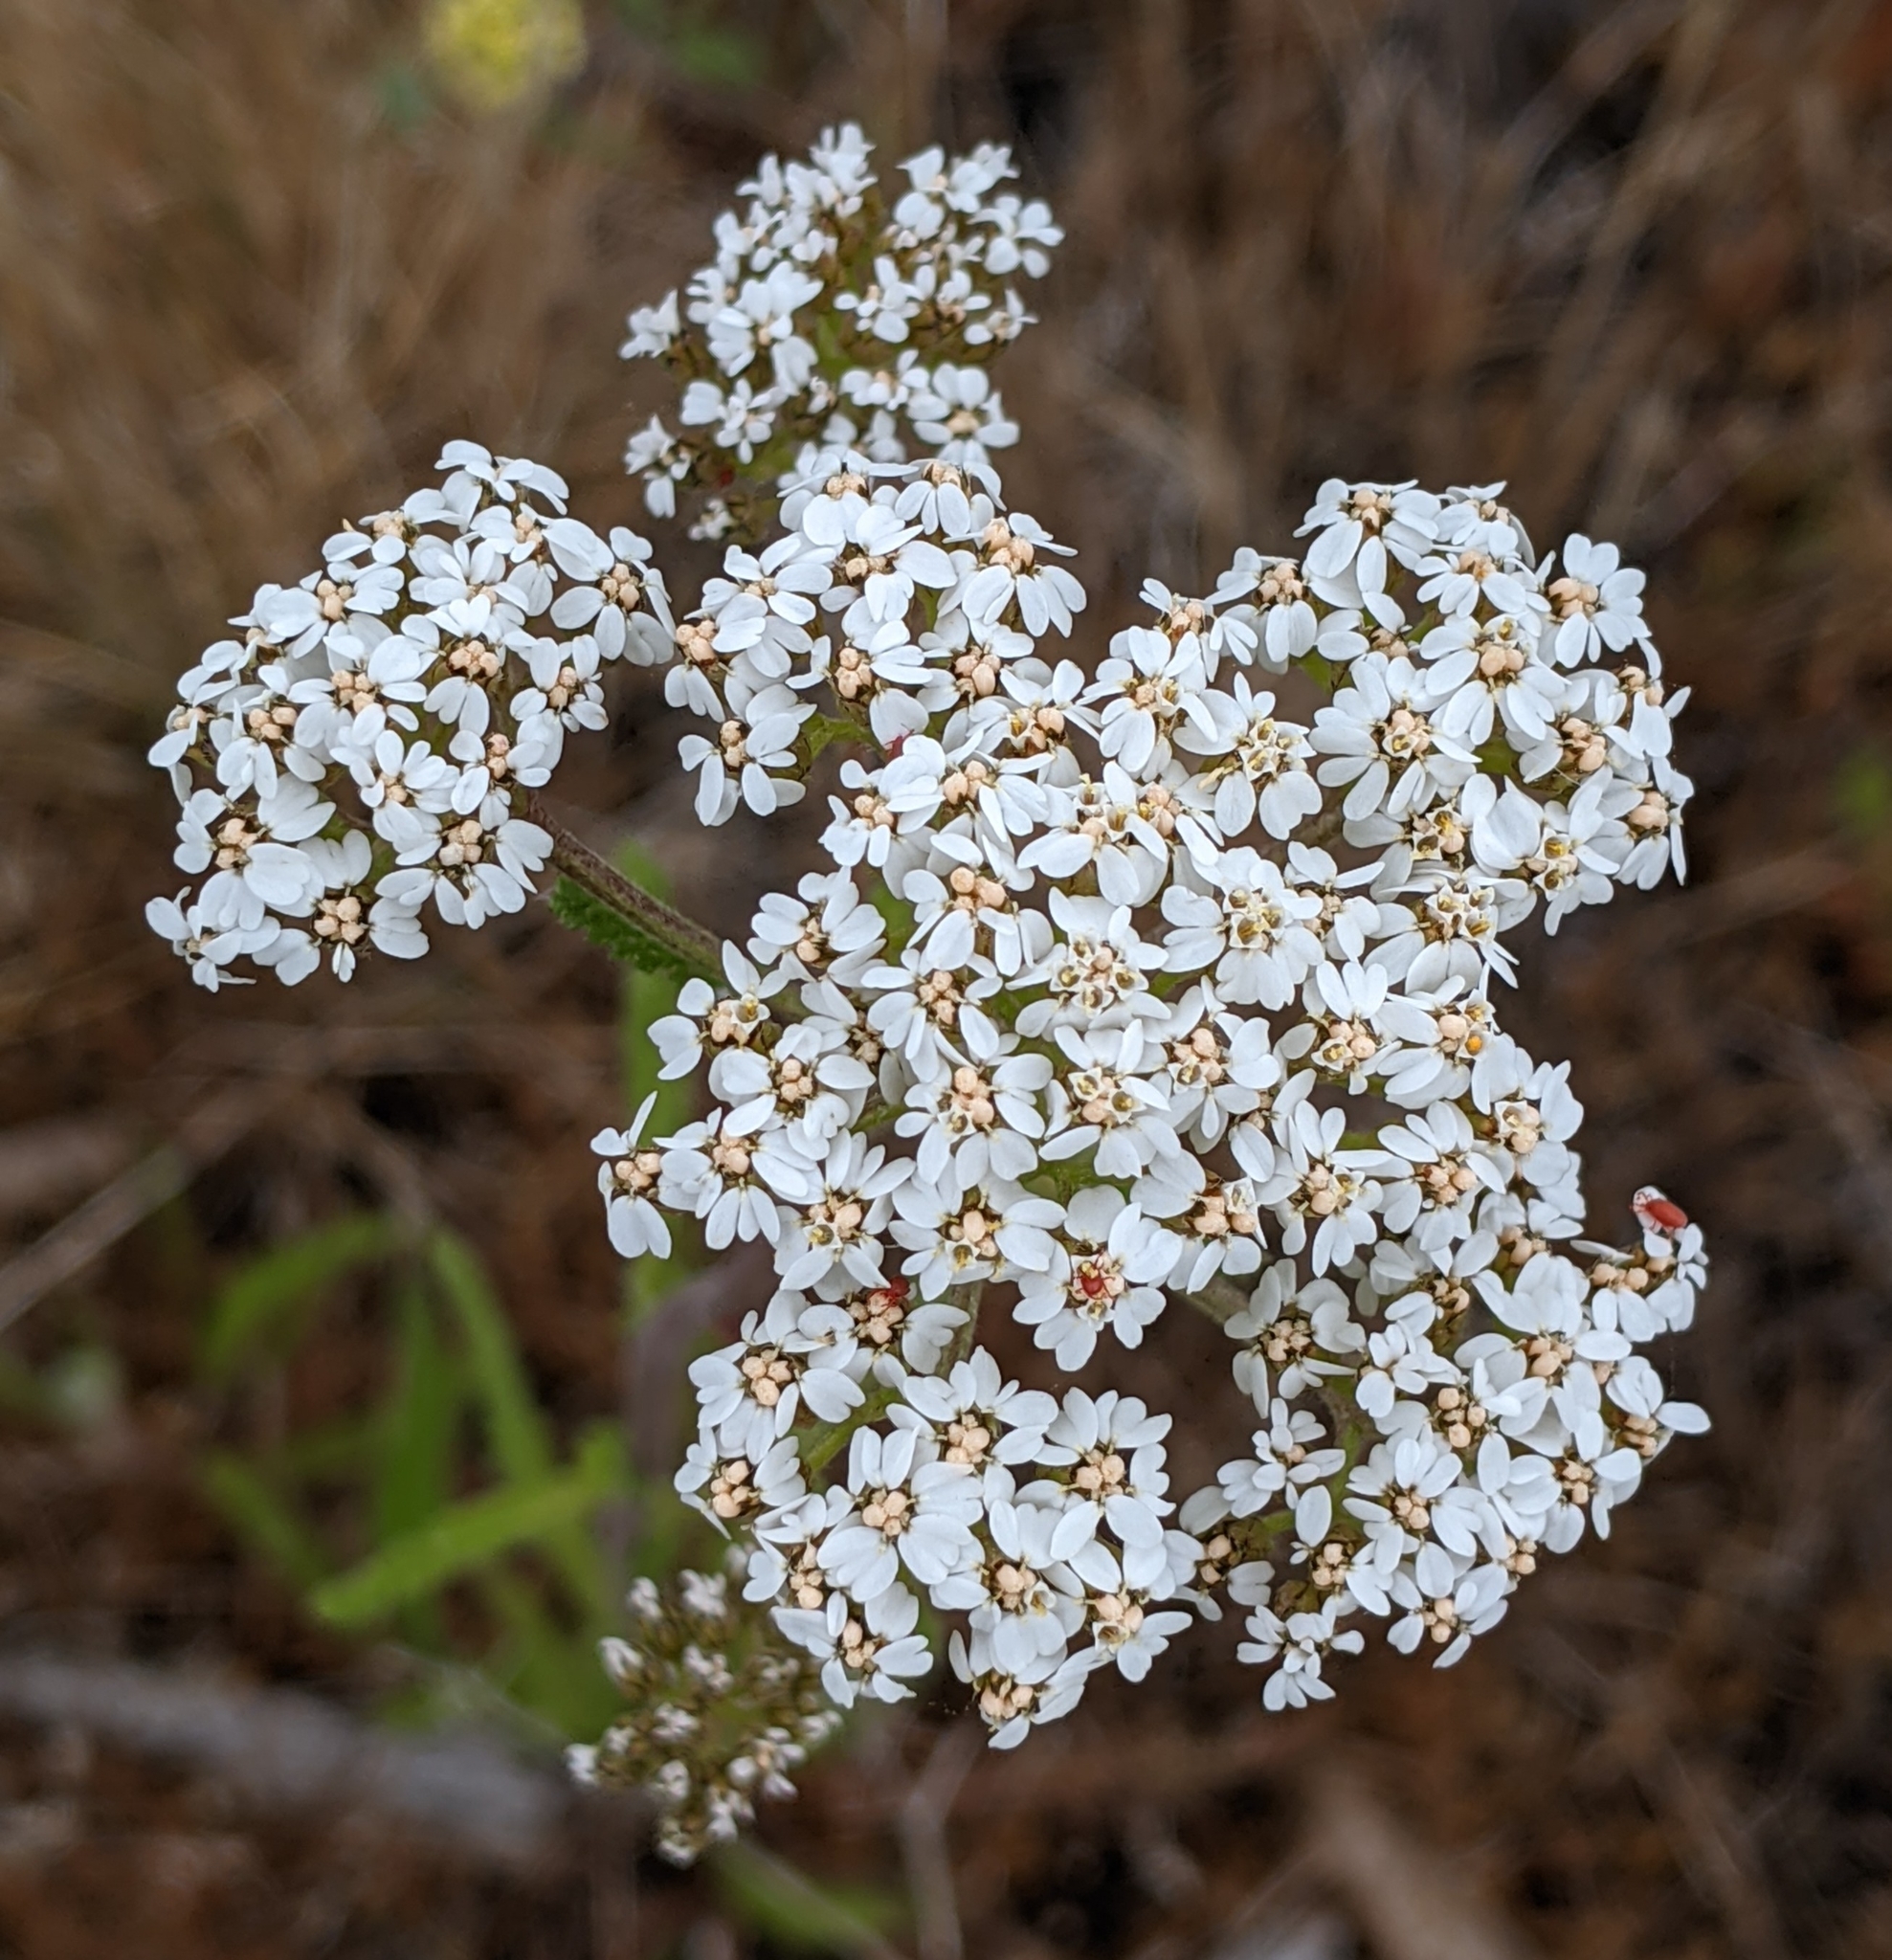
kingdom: Plantae
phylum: Tracheophyta
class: Magnoliopsida
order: Asterales
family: Asteraceae
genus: Achillea
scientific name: Achillea millefolium
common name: Yarrow
